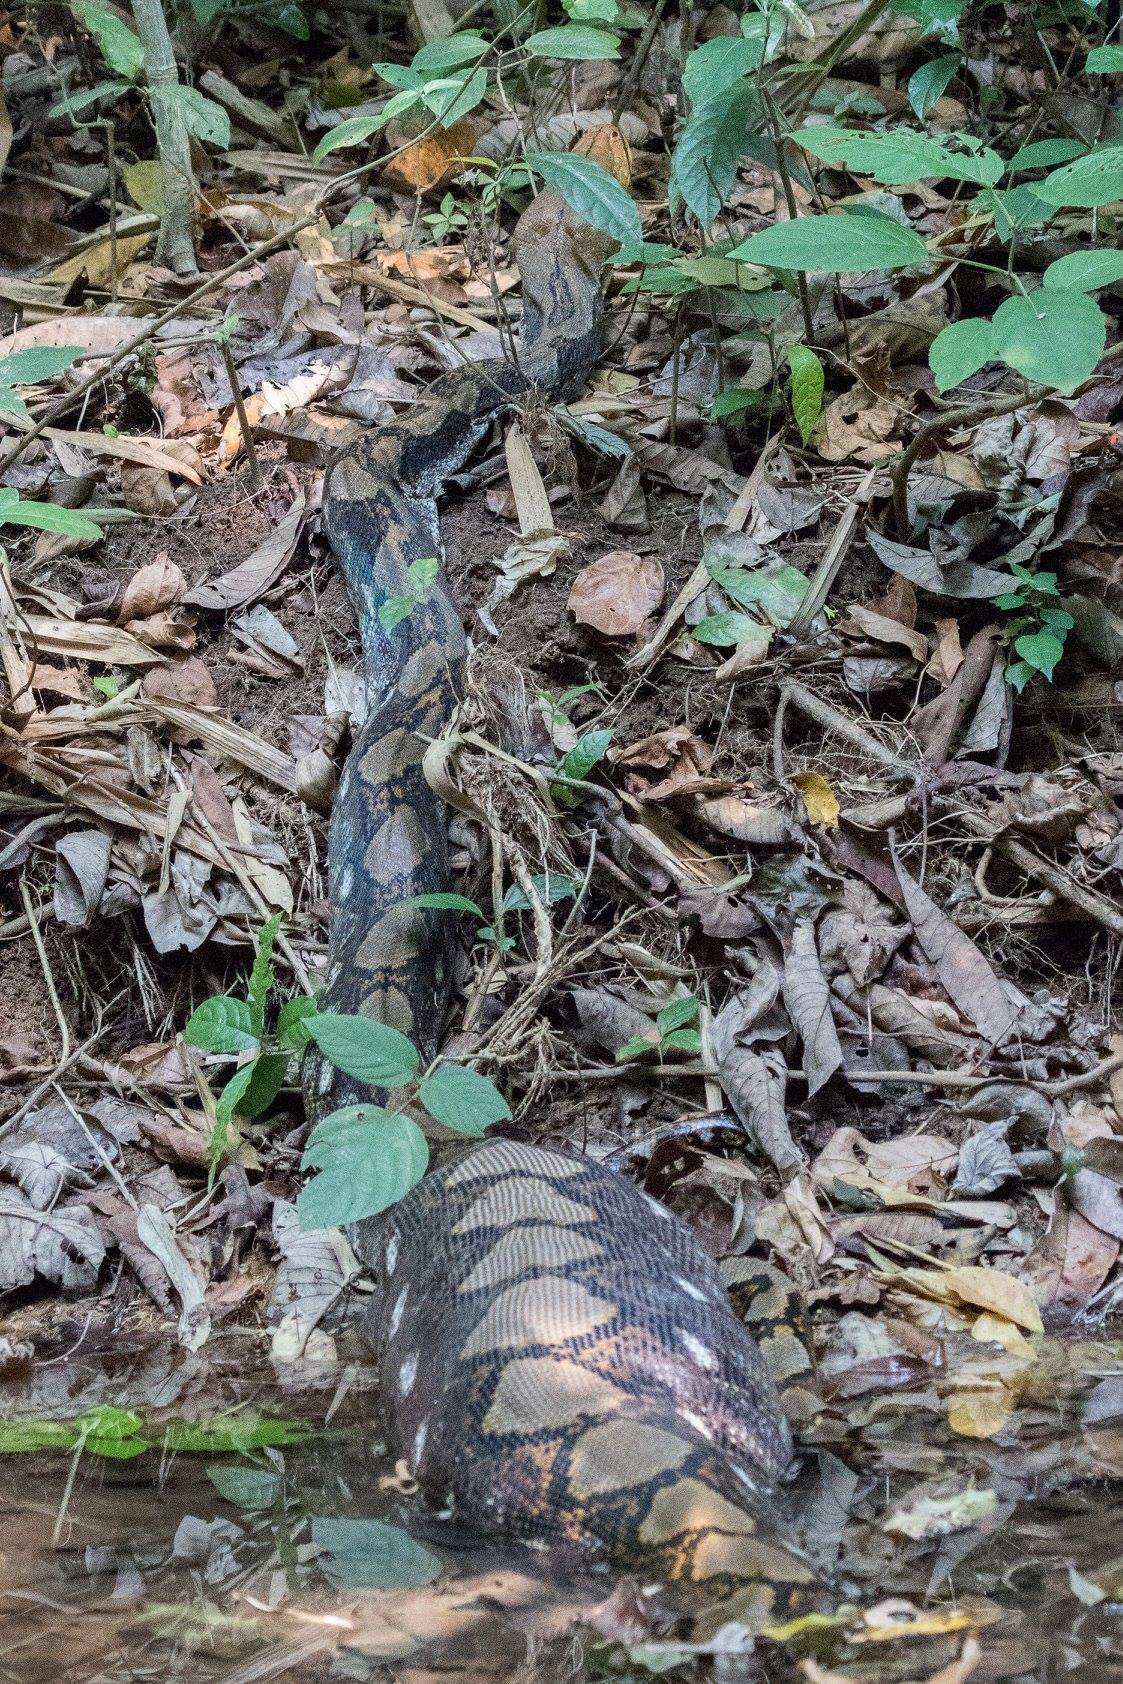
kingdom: Animalia
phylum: Chordata
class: Squamata
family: Pythonidae
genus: Malayopython
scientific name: Malayopython reticulatus
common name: Reticulated python
